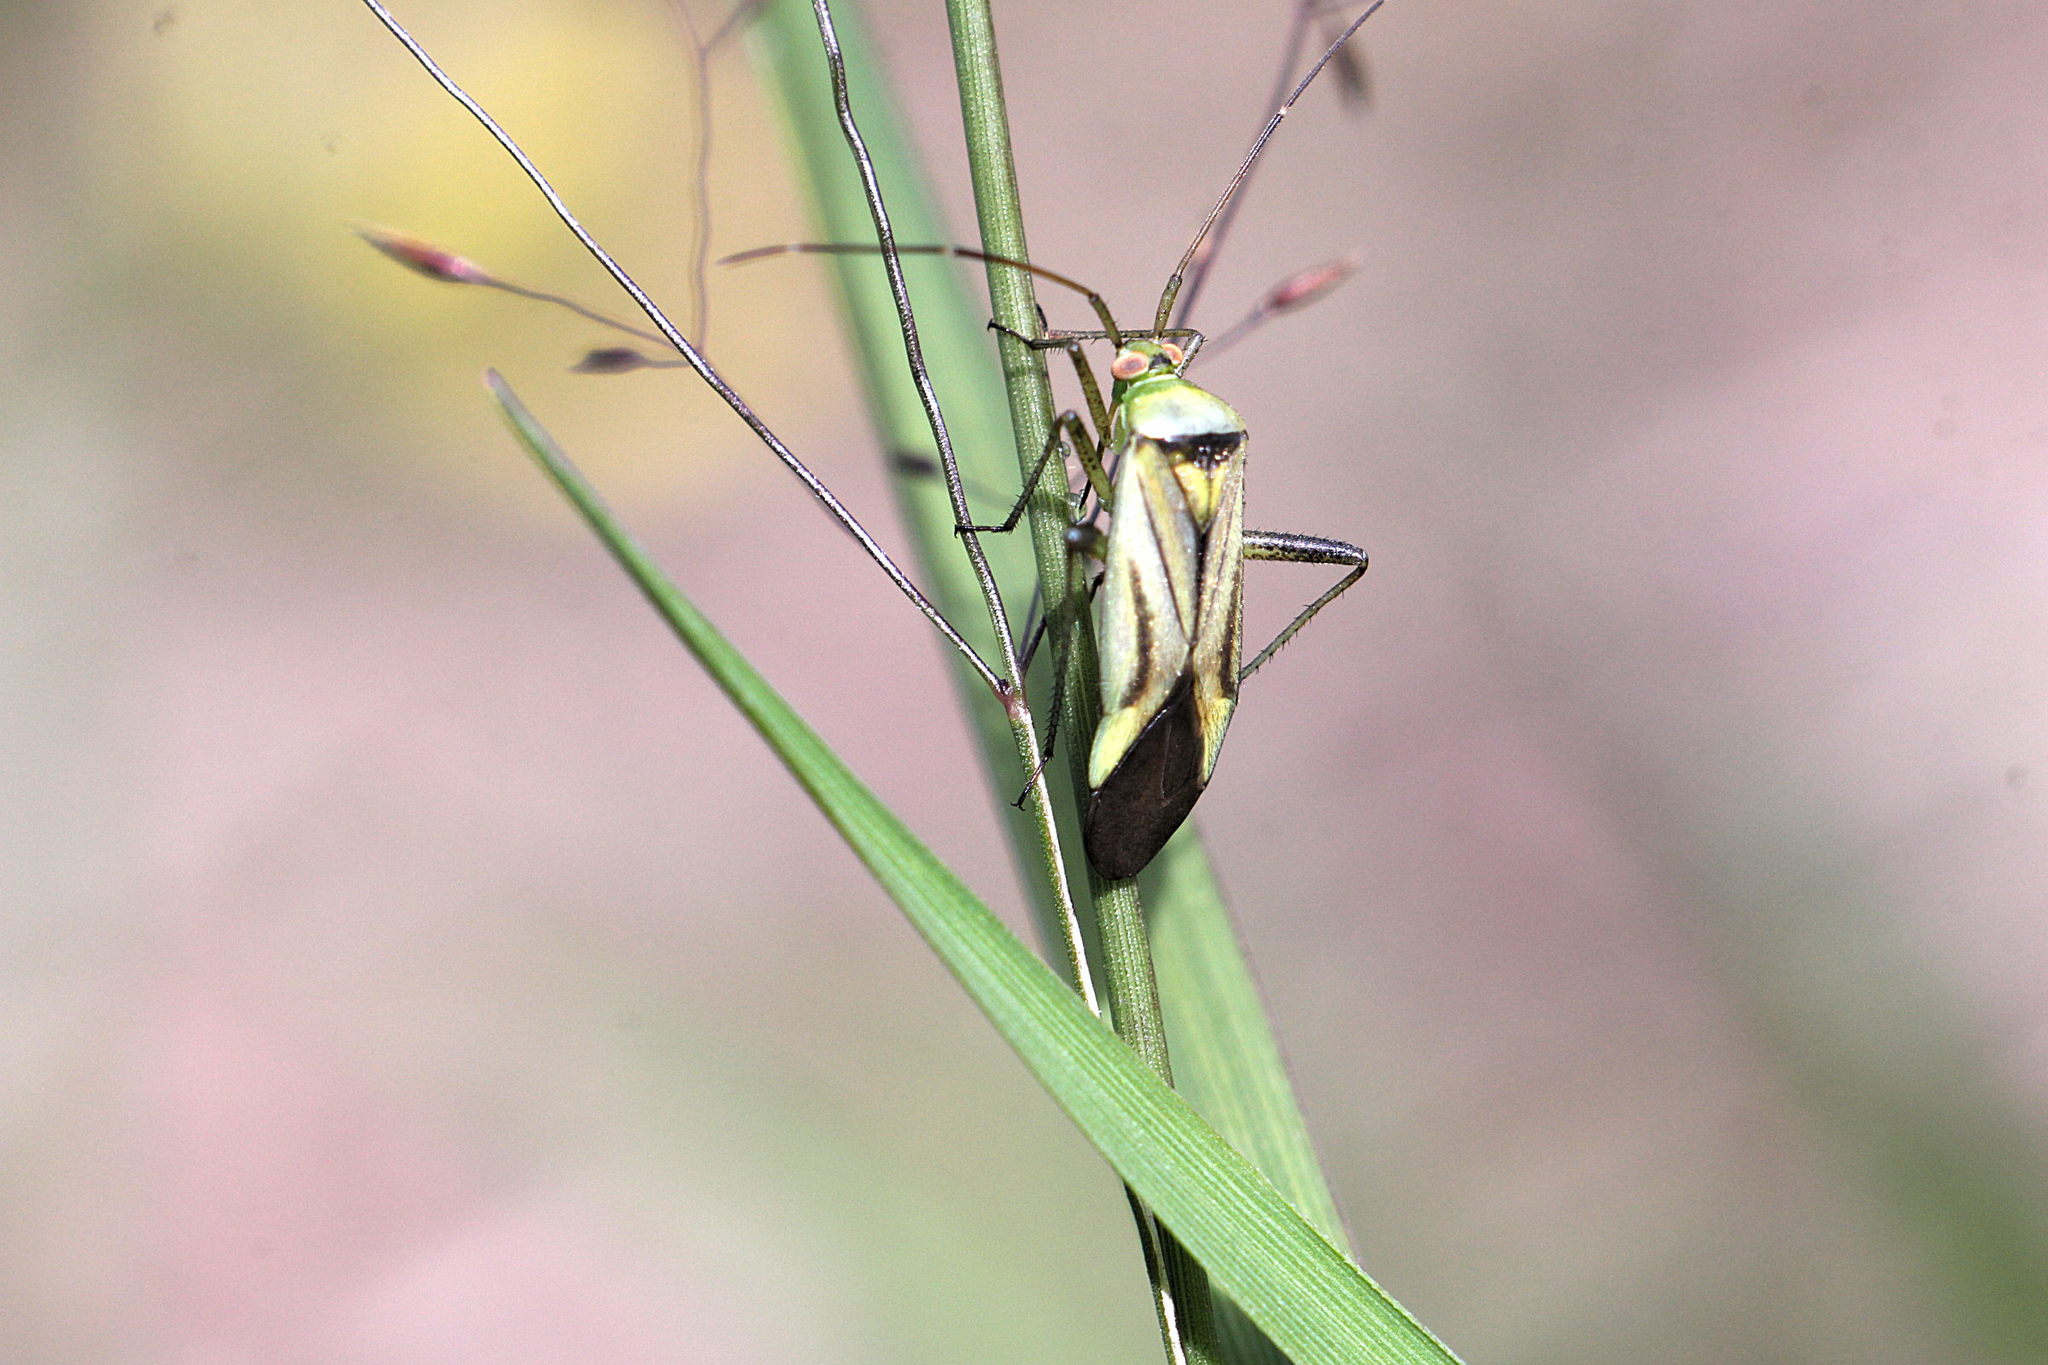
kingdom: Animalia
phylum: Arthropoda
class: Insecta
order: Hemiptera
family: Miridae
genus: Adelphocoris
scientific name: Adelphocoris quadripunctatus
